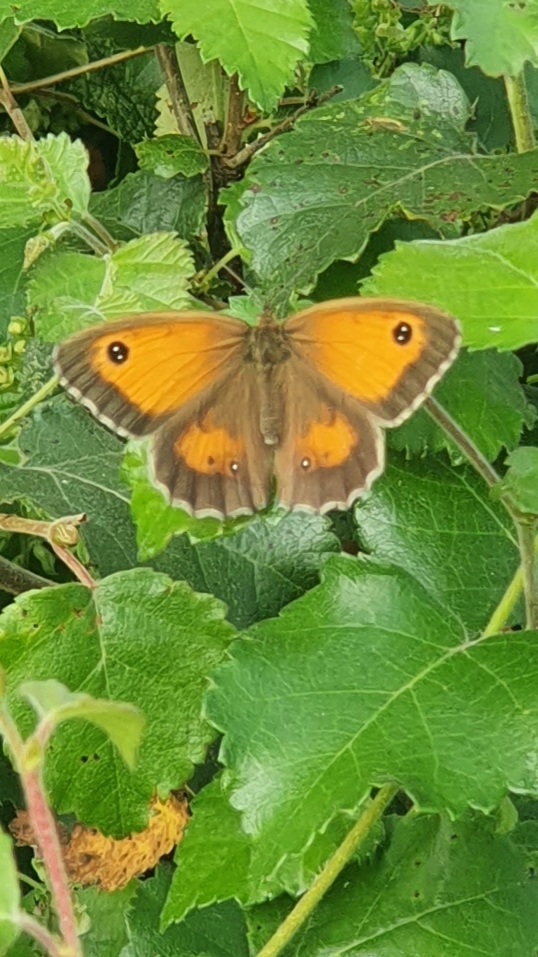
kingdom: Animalia
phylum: Arthropoda
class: Insecta
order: Lepidoptera
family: Nymphalidae
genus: Pyronia
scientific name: Pyronia tithonus
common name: Gatekeeper
